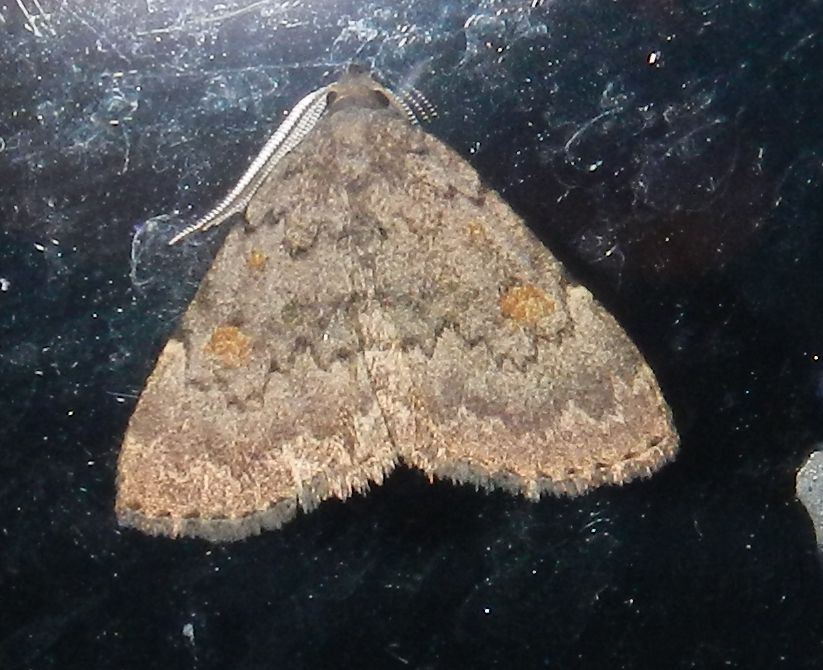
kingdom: Animalia
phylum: Arthropoda
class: Insecta
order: Lepidoptera
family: Erebidae
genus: Idia
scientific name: Idia aemula
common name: Common idia moth
